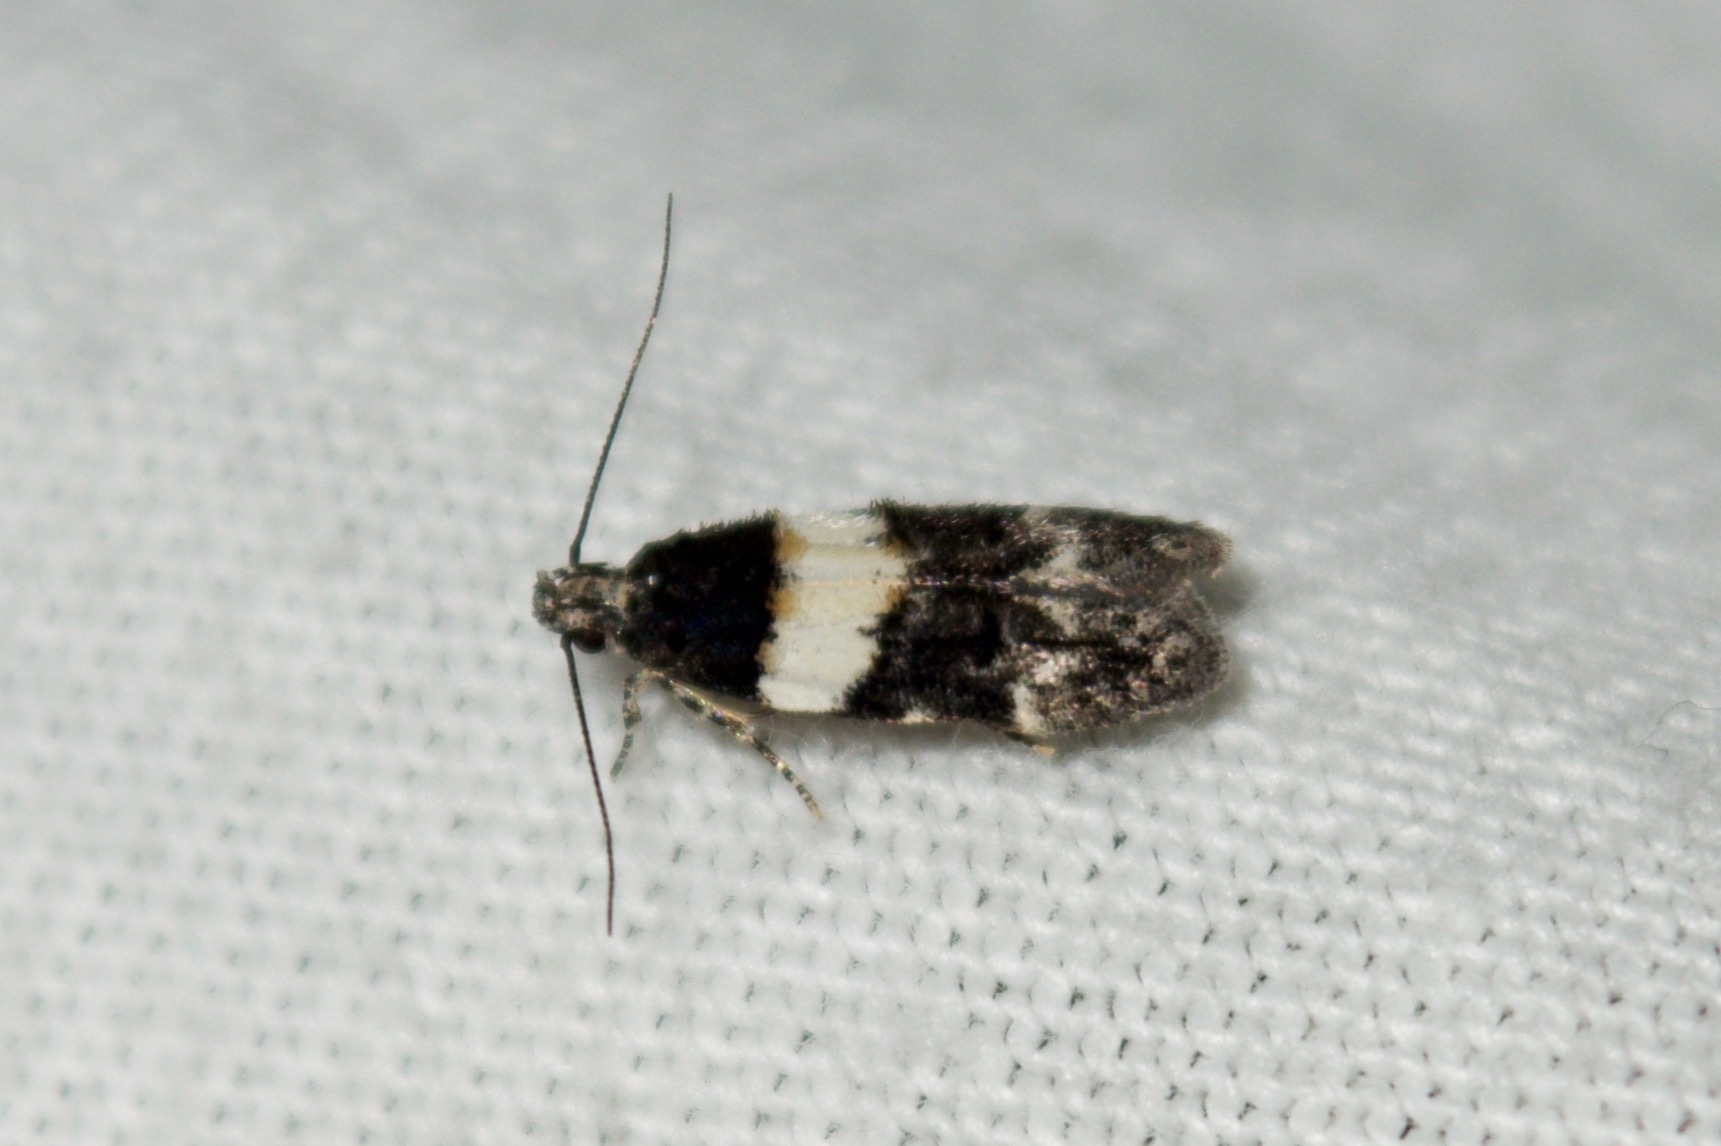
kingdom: Animalia
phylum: Arthropoda
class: Insecta
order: Lepidoptera
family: Gelechiidae
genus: Pubitelphusa
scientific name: Pubitelphusa latifasciella
